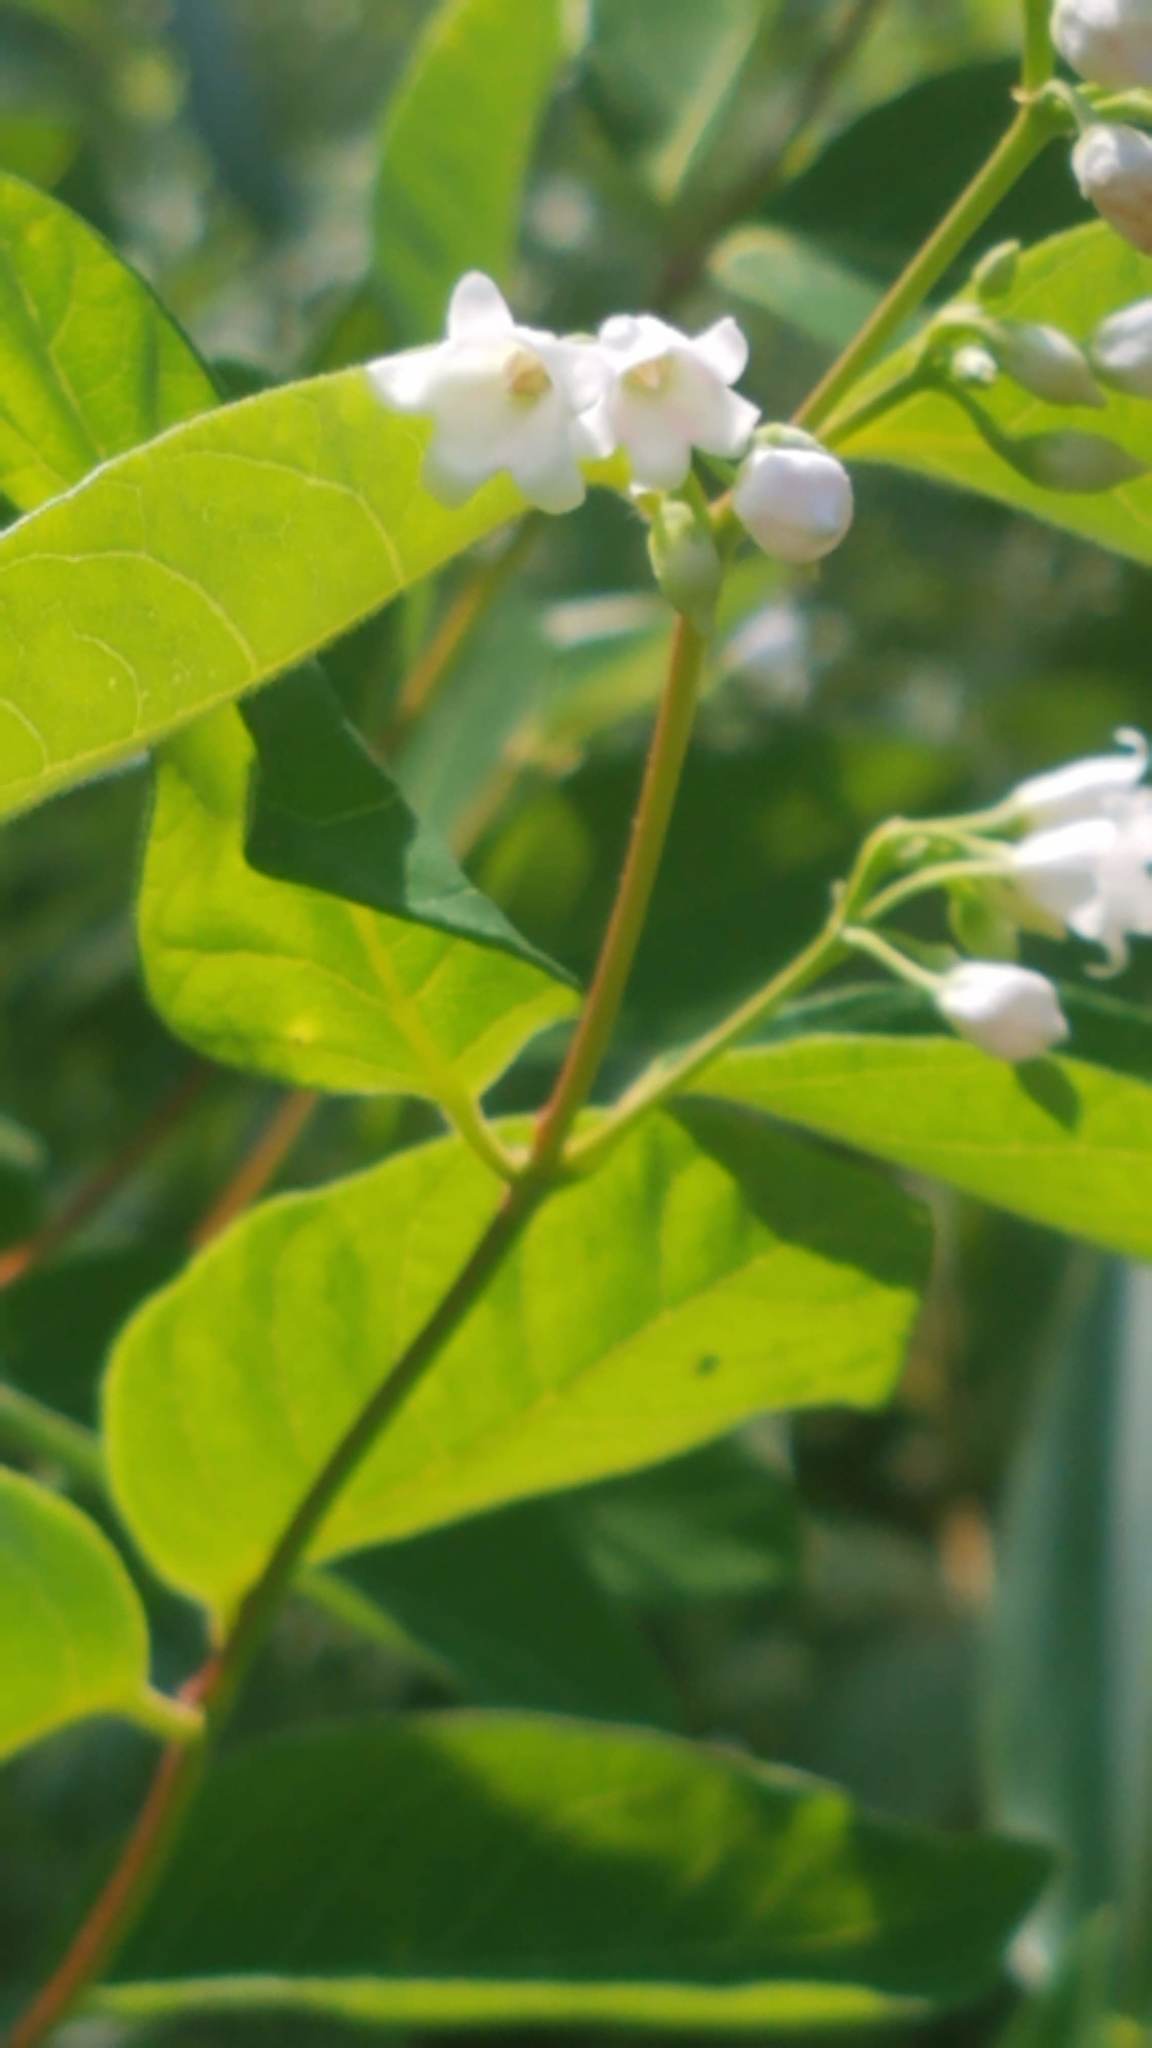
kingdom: Plantae
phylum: Tracheophyta
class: Magnoliopsida
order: Gentianales
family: Apocynaceae
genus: Apocynum
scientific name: Apocynum androsaemifolium
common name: Spreading dogbane
